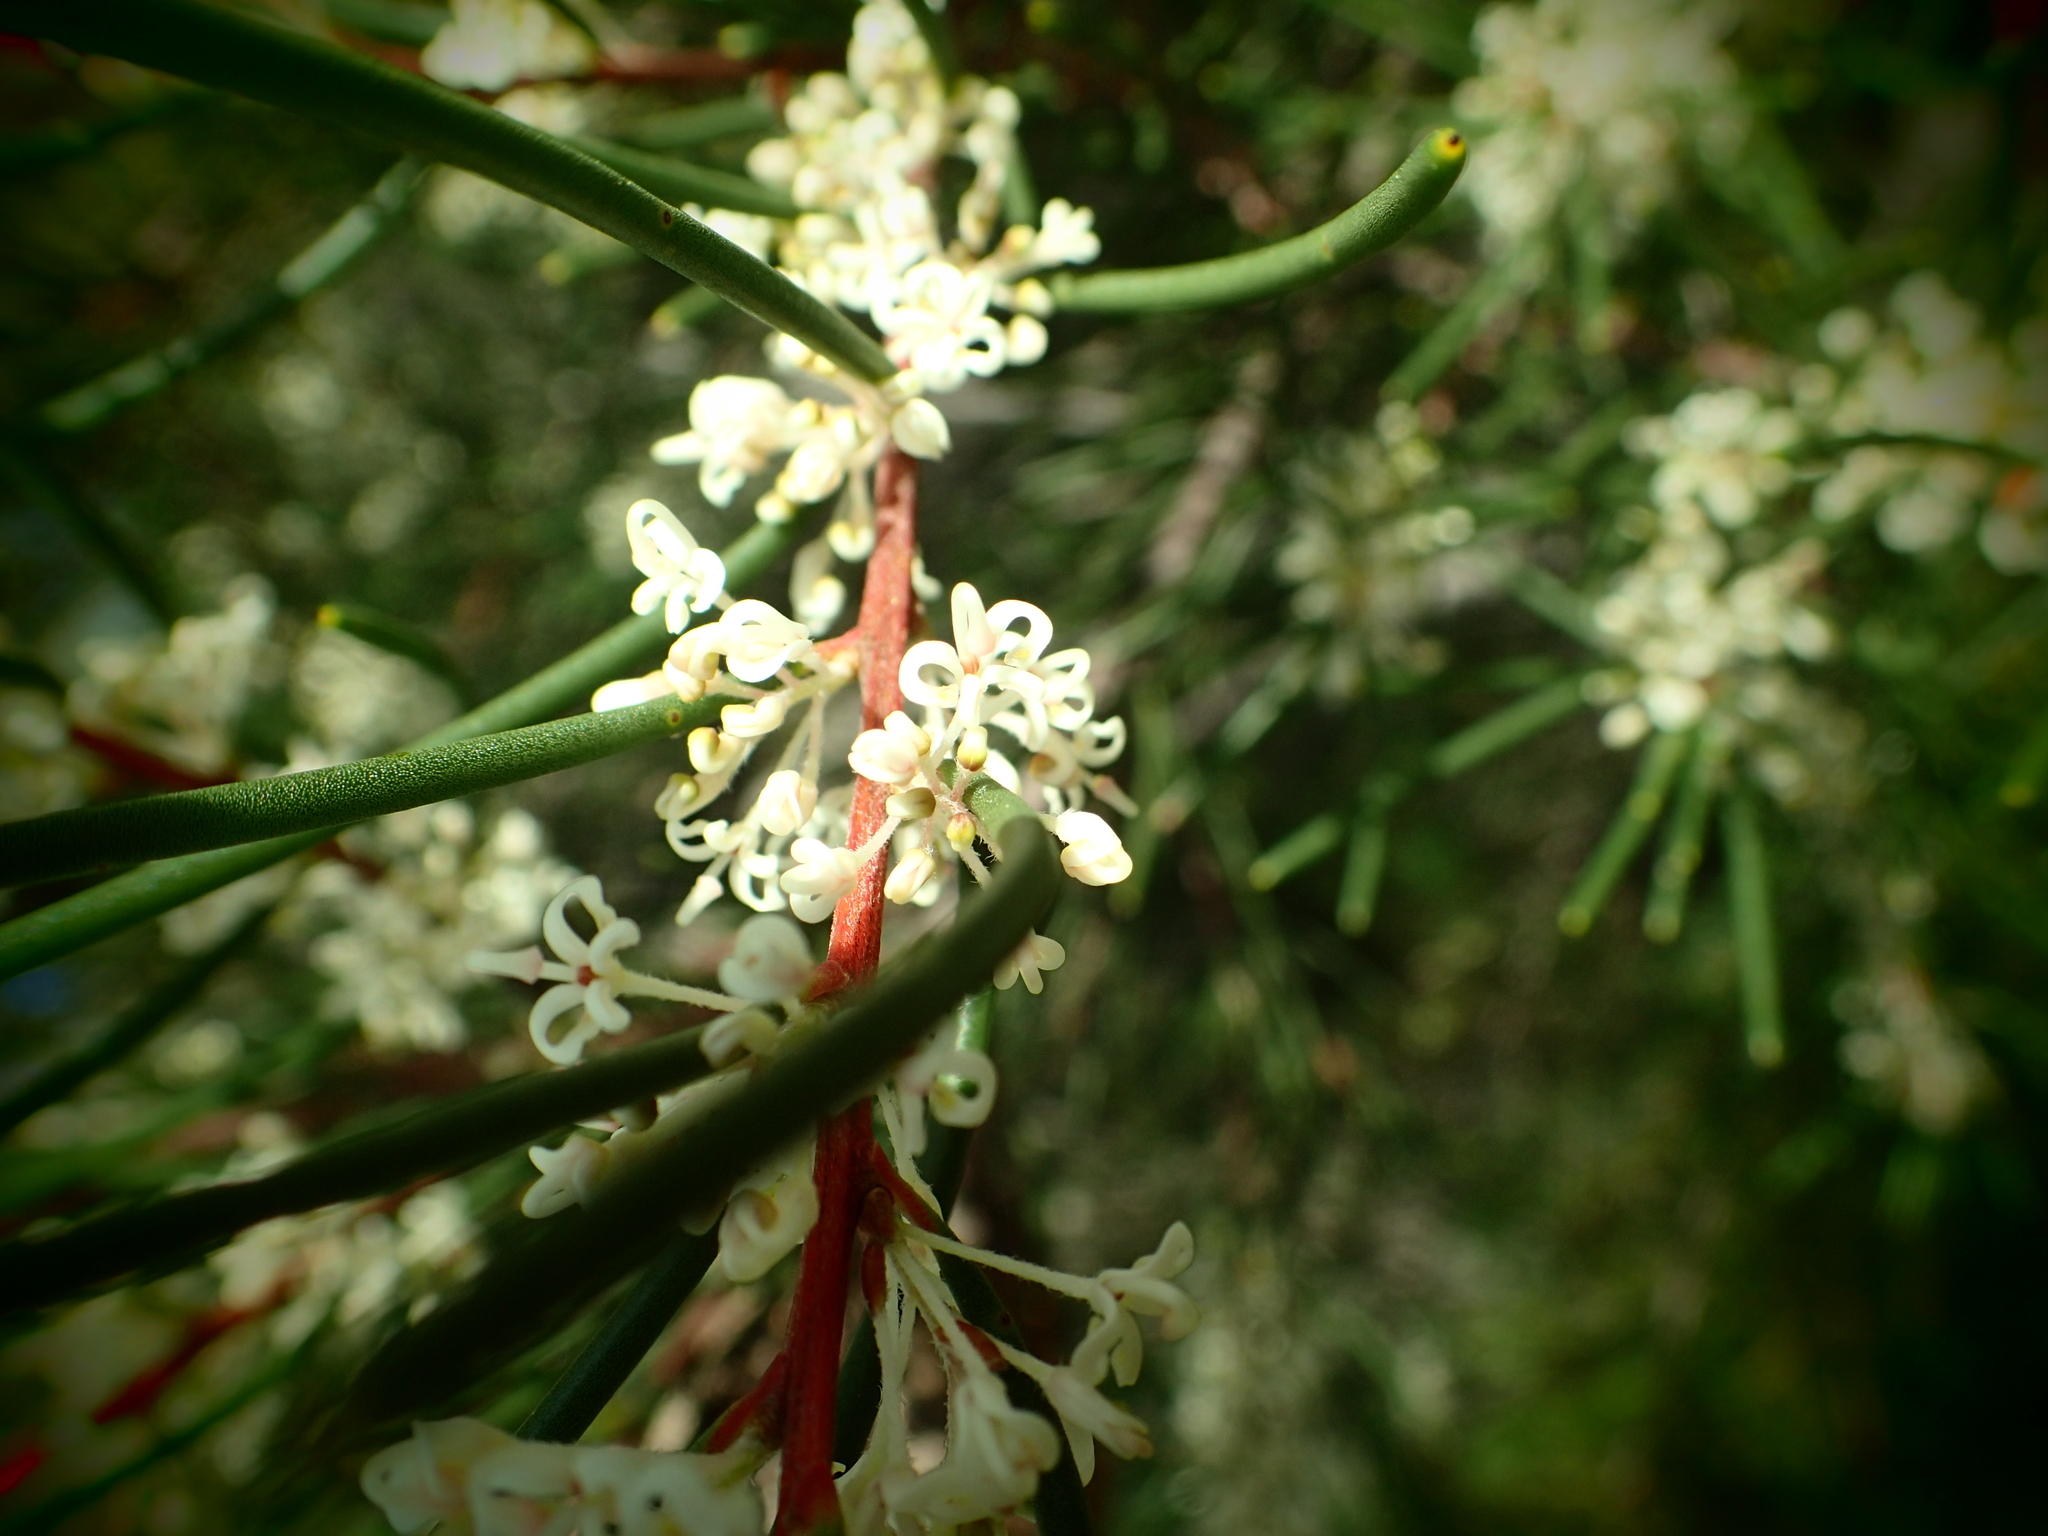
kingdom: Plantae
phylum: Tracheophyta
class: Magnoliopsida
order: Proteales
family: Proteaceae
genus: Hakea
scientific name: Hakea propinqua
